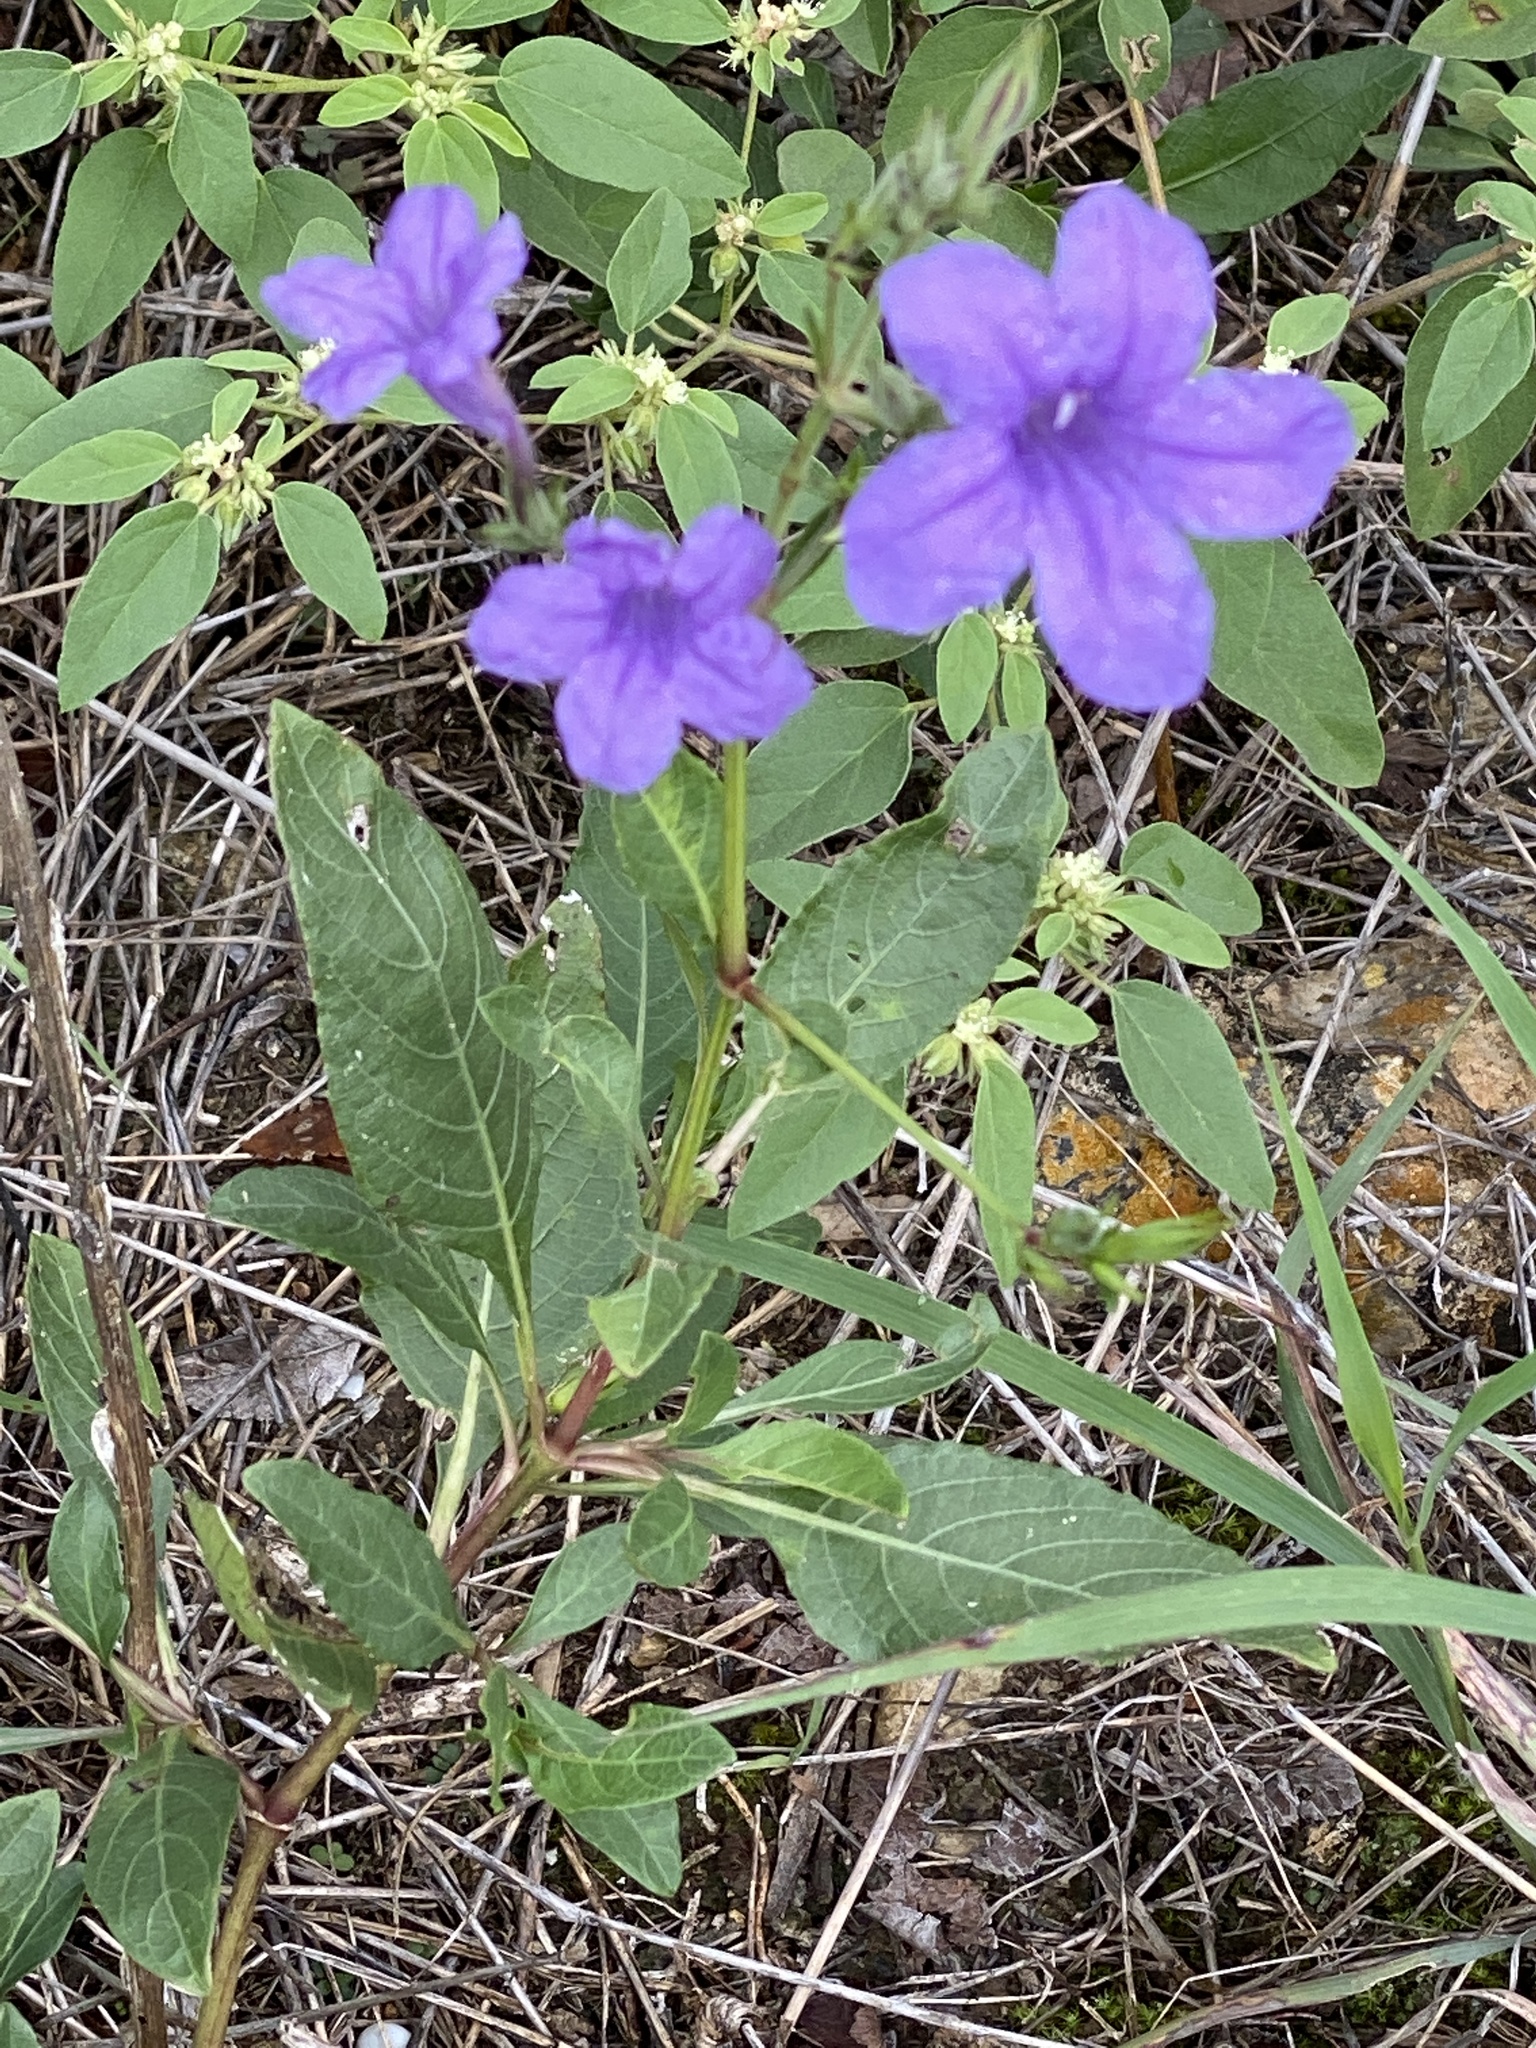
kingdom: Plantae
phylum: Tracheophyta
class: Magnoliopsida
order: Lamiales
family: Acanthaceae
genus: Ruellia
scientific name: Ruellia ciliatiflora
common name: Hairyflower wild petunia
